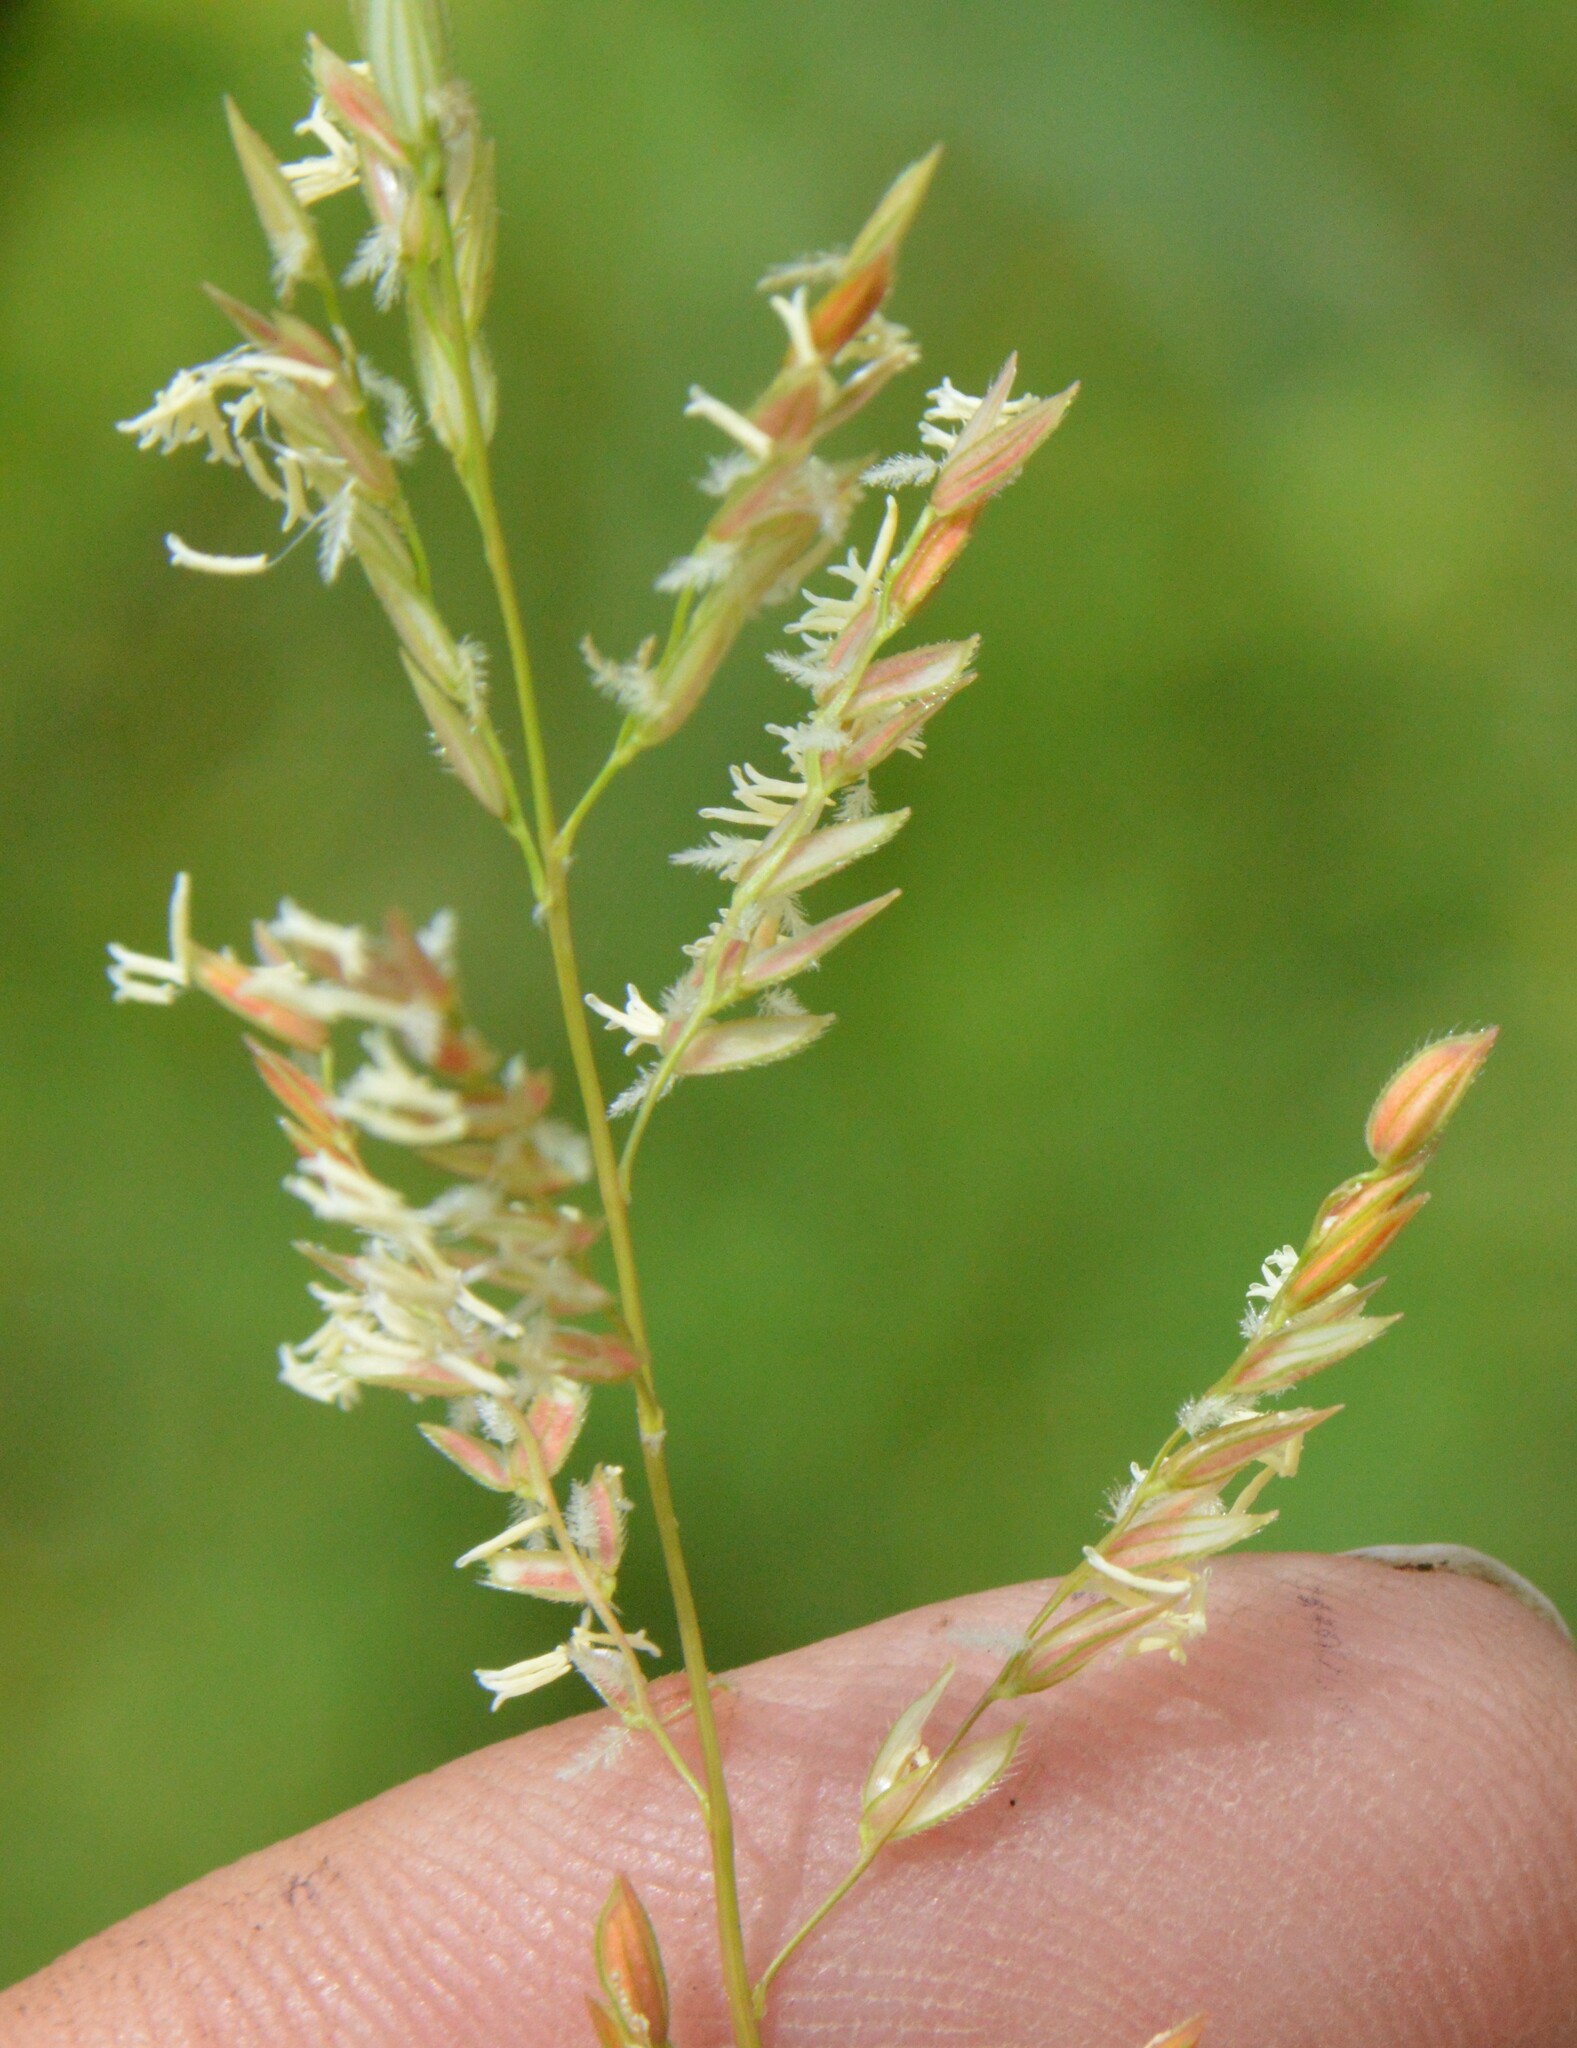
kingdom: Plantae
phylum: Tracheophyta
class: Liliopsida
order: Poales
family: Poaceae
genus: Leersia
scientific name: Leersia hexandra
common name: Southern cut grass
